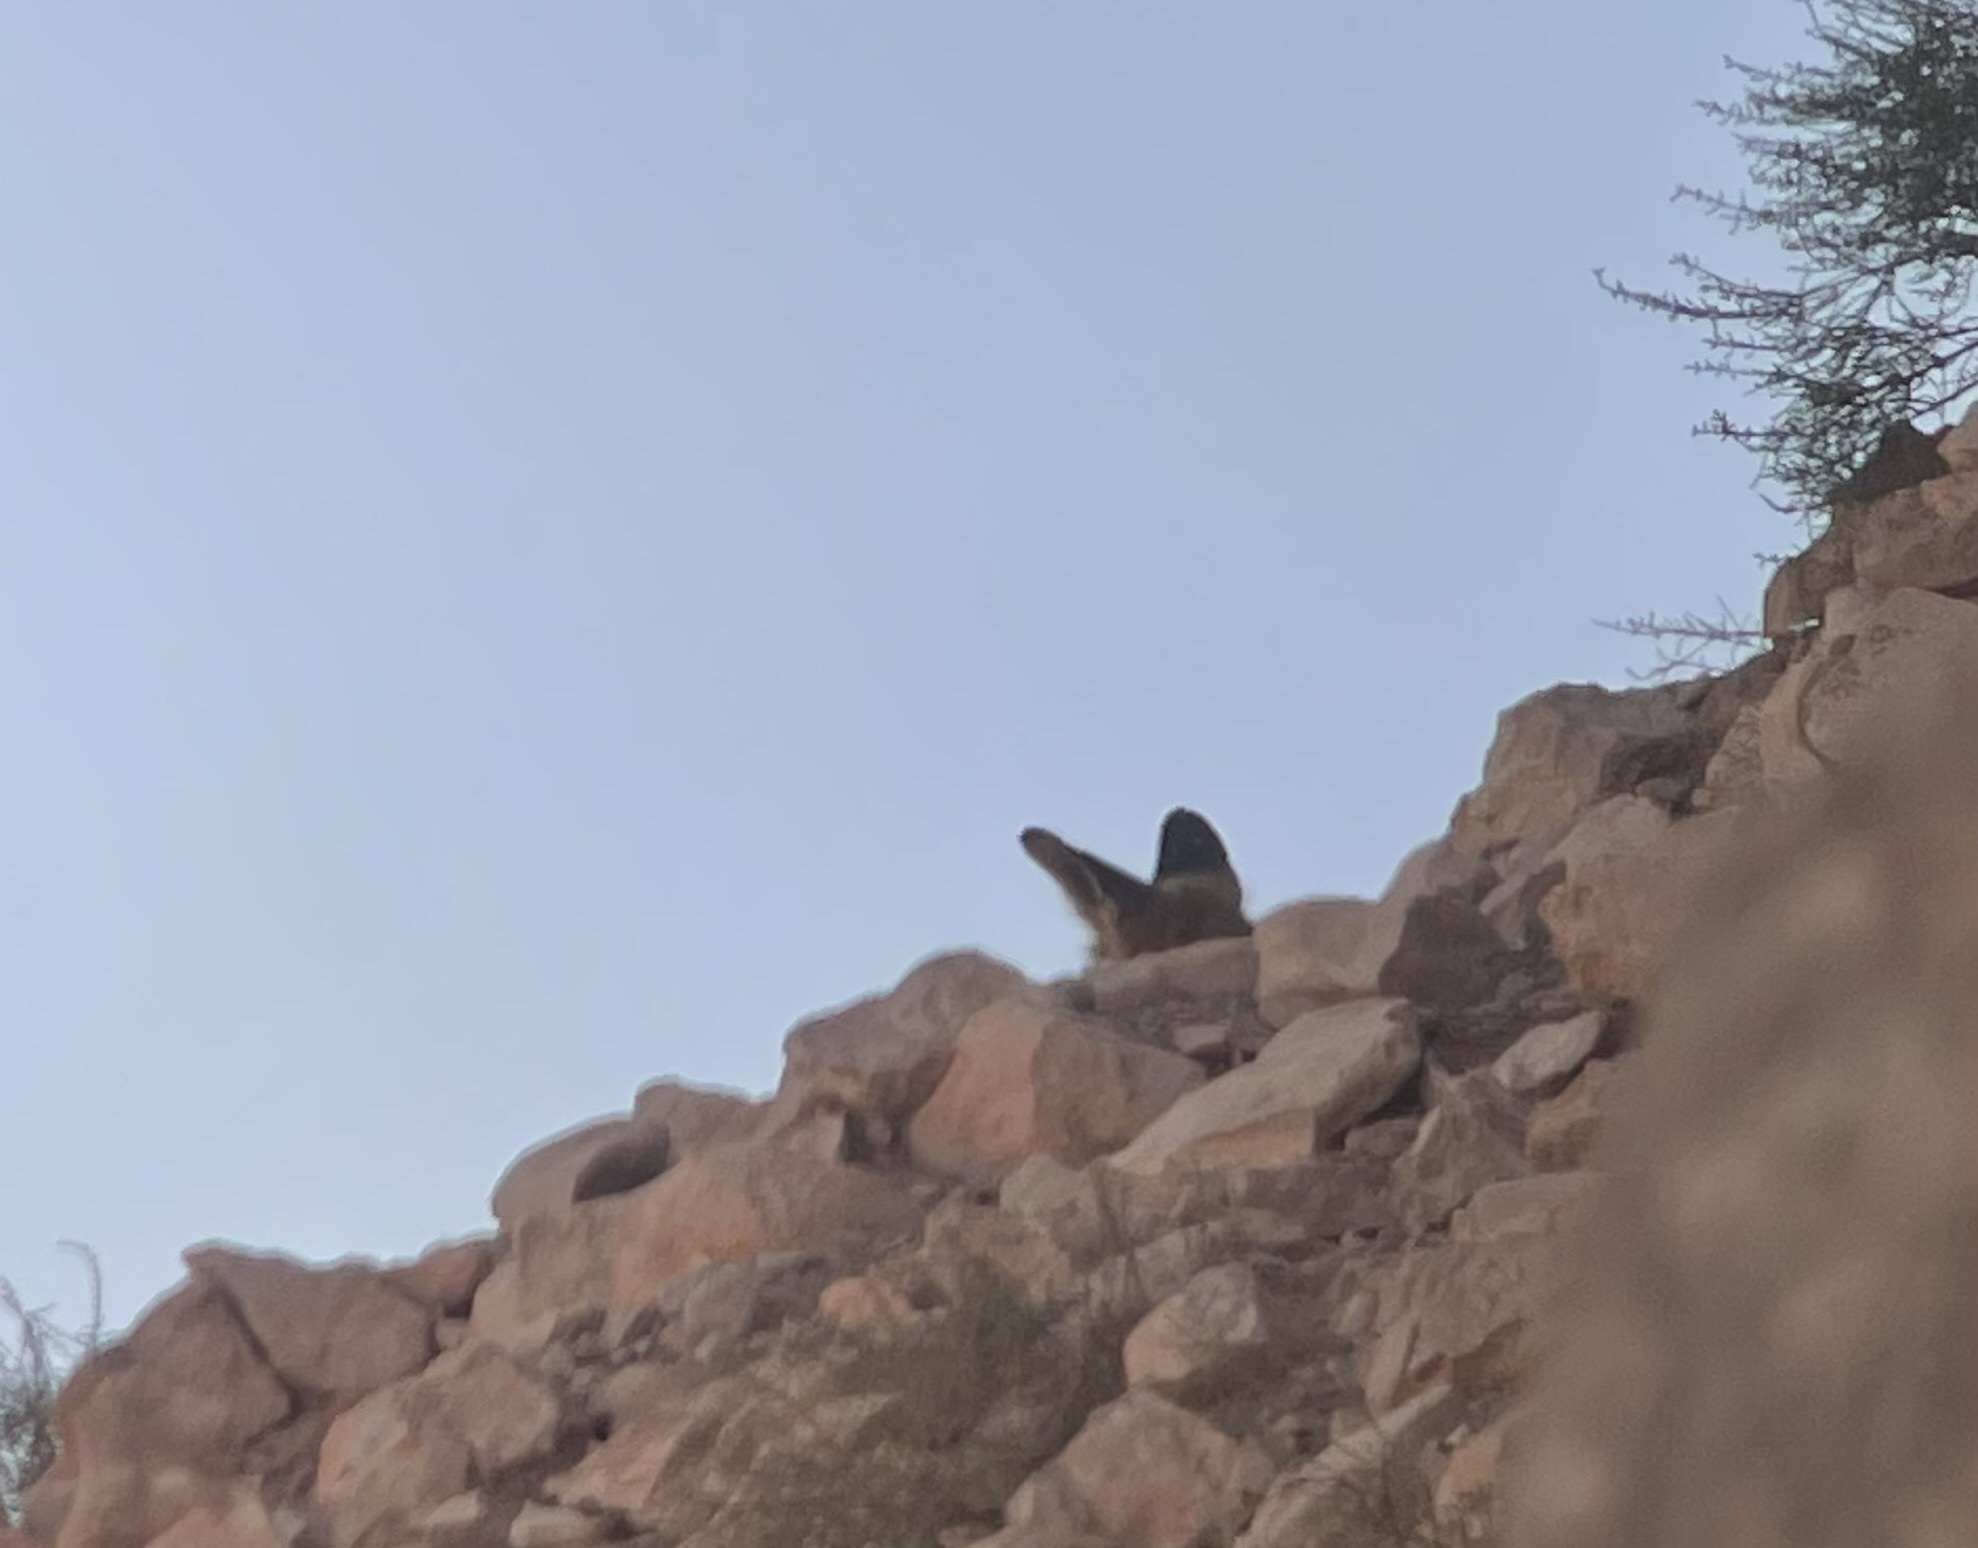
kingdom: Animalia
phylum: Chordata
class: Mammalia
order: Carnivora
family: Canidae
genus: Vulpes
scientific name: Vulpes vulpes
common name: Red fox
